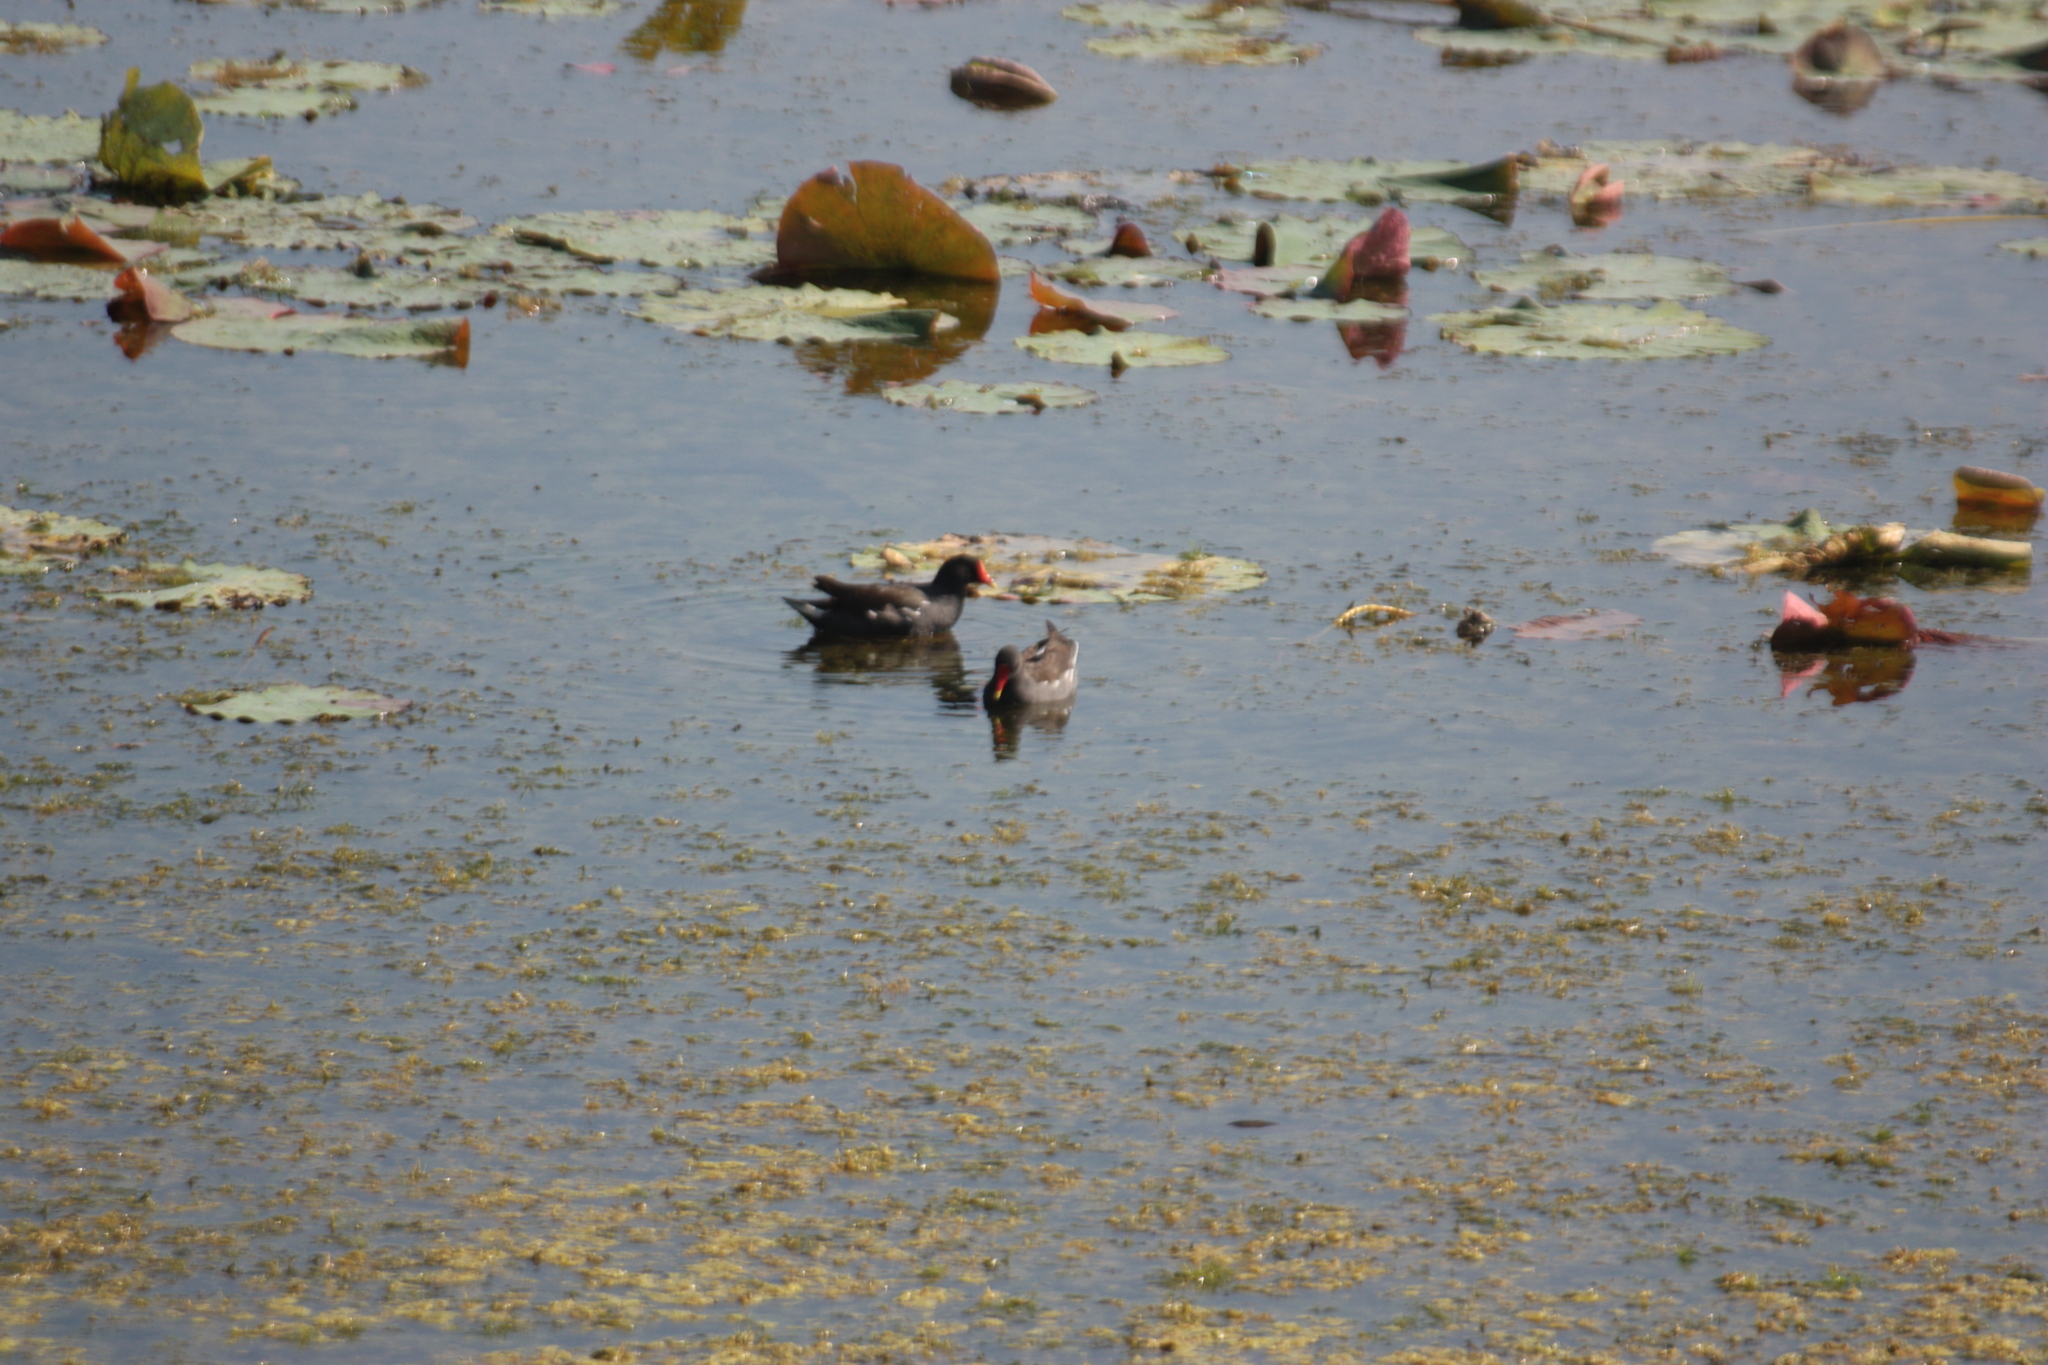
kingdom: Animalia
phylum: Chordata
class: Aves
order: Gruiformes
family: Rallidae
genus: Gallinula
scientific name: Gallinula chloropus
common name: Common moorhen
